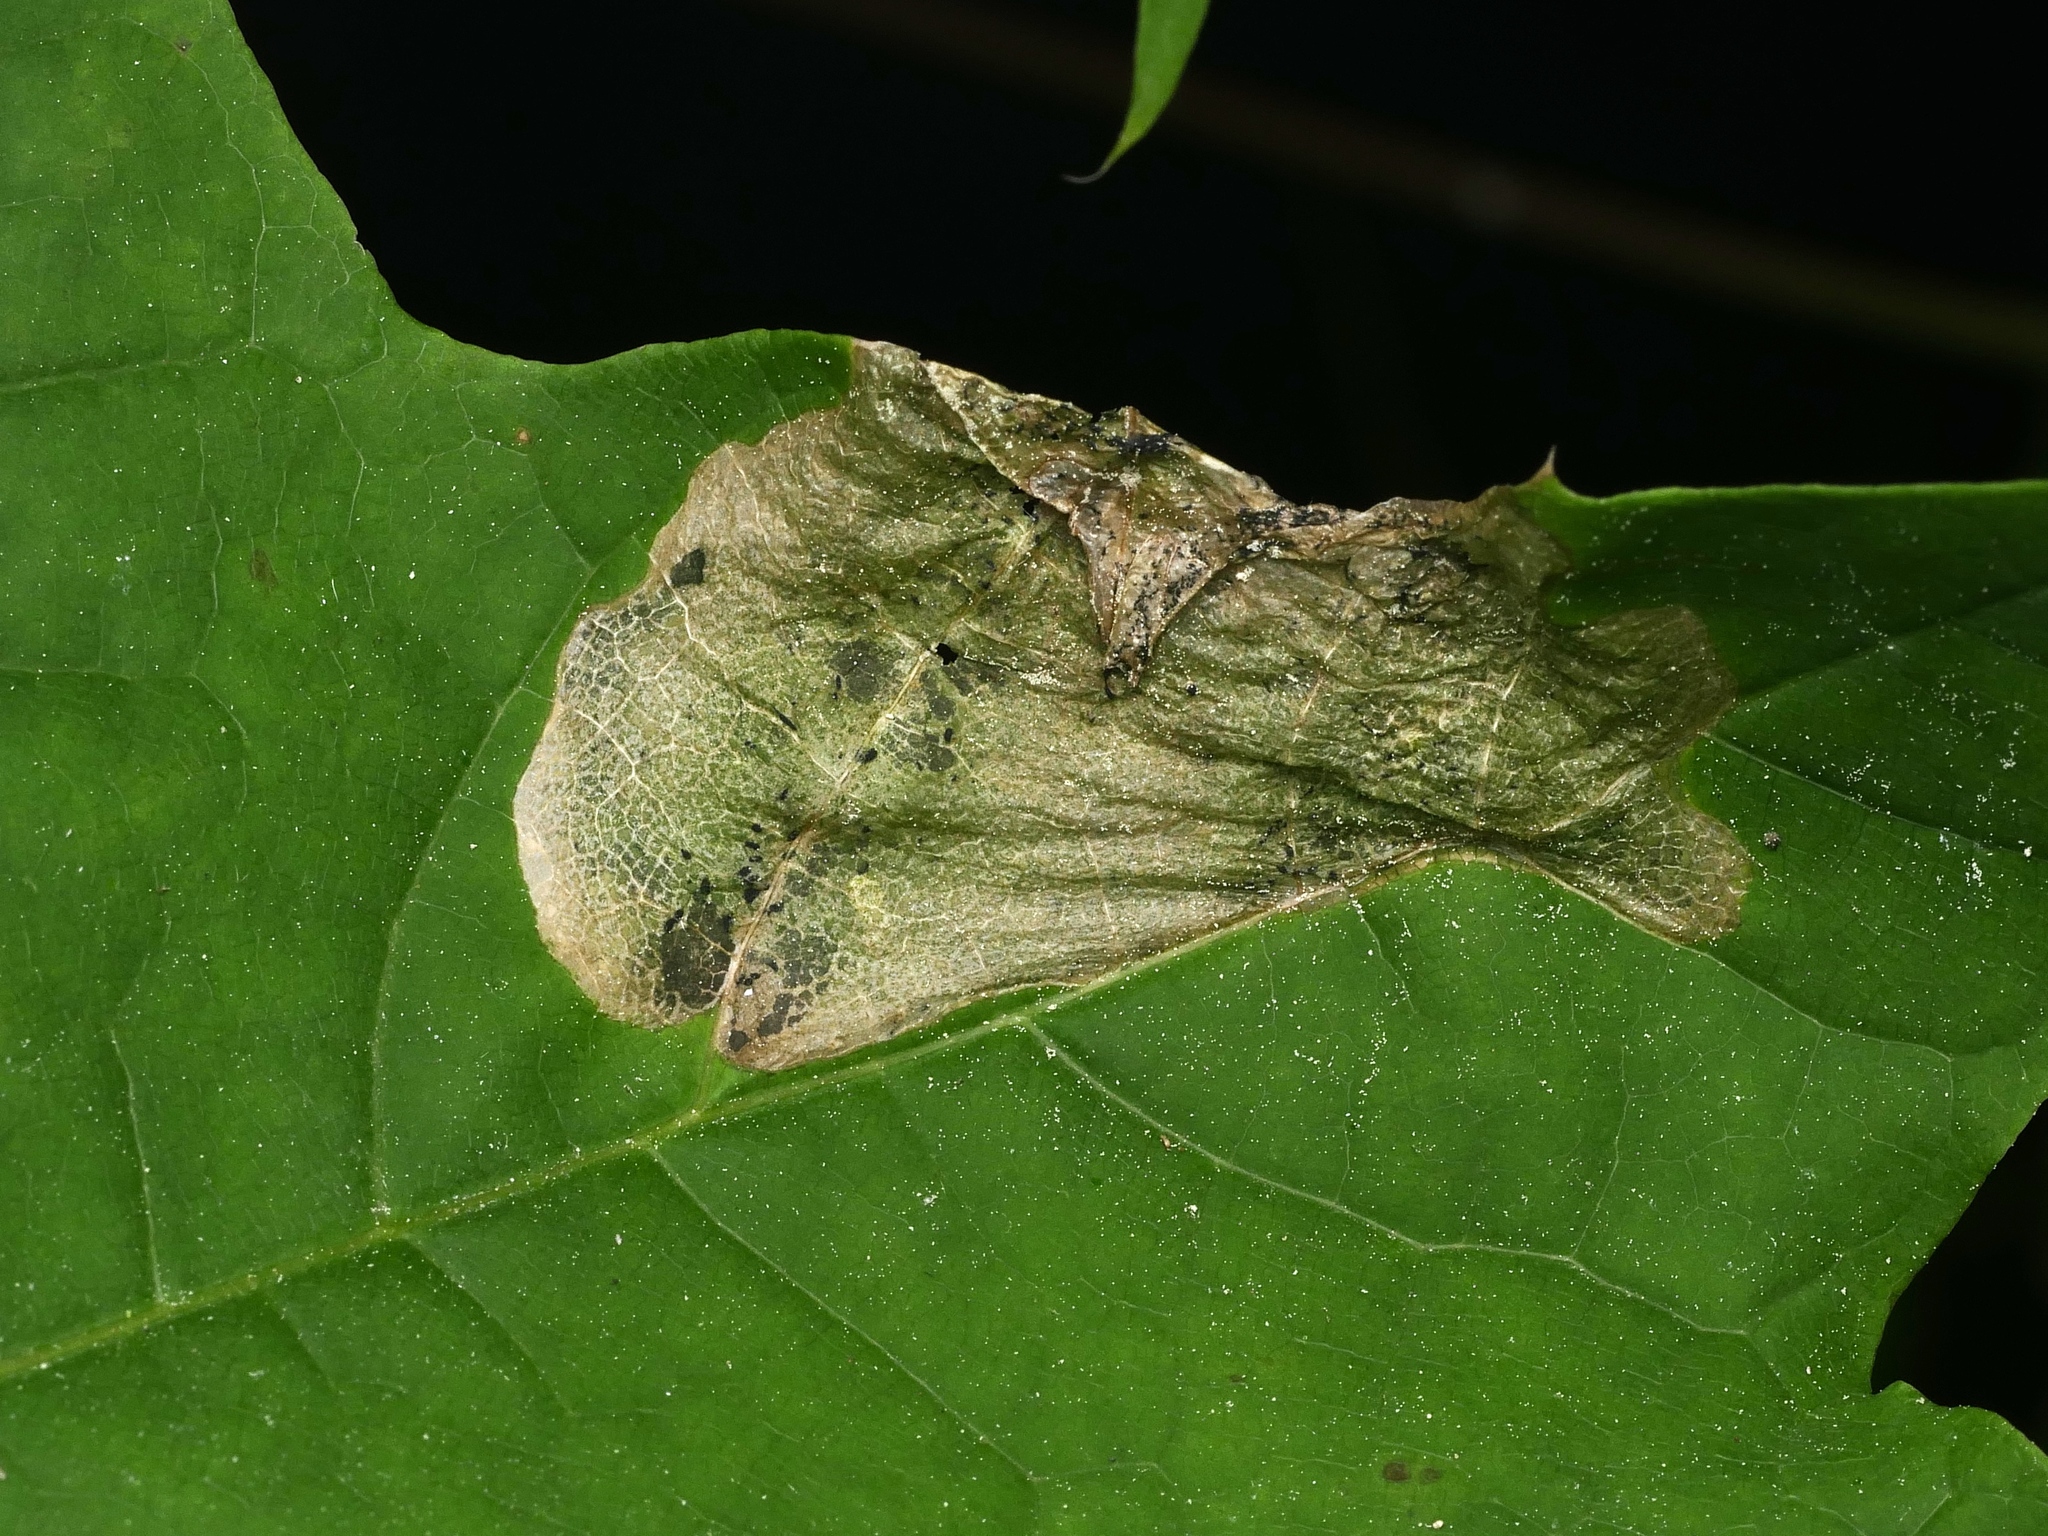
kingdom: Animalia
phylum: Arthropoda
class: Insecta
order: Hymenoptera
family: Tenthredinidae
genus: Hinatara
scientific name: Hinatara recta
